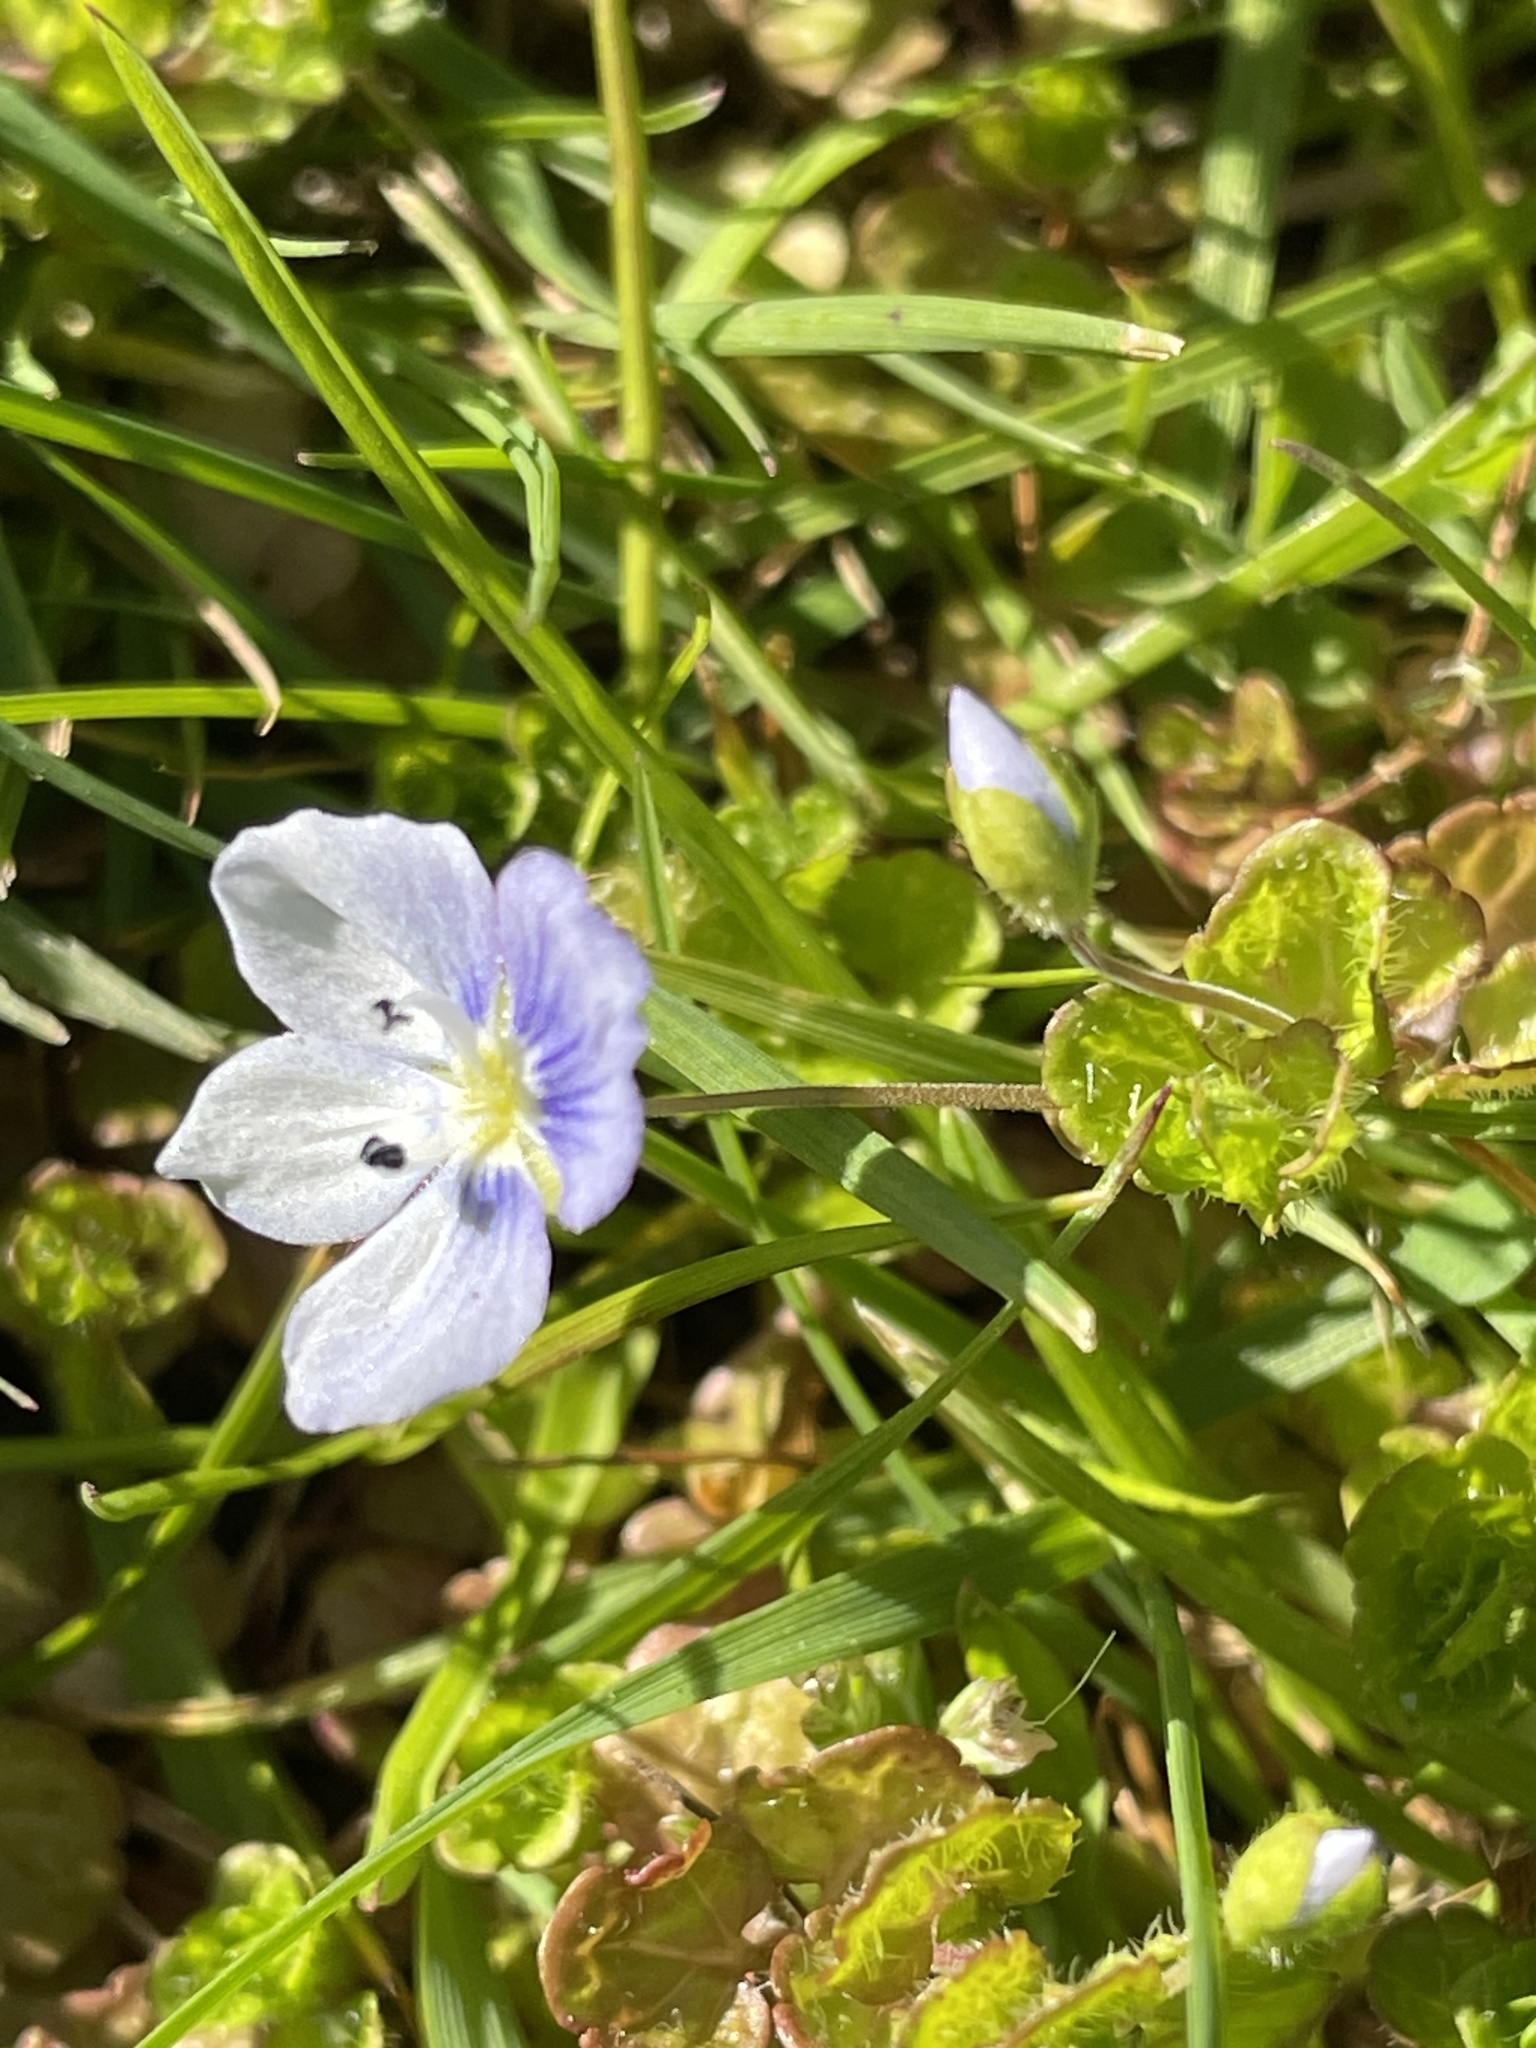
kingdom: Plantae
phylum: Tracheophyta
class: Magnoliopsida
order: Lamiales
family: Plantaginaceae
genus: Veronica
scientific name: Veronica filiformis
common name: Slender speedwell
